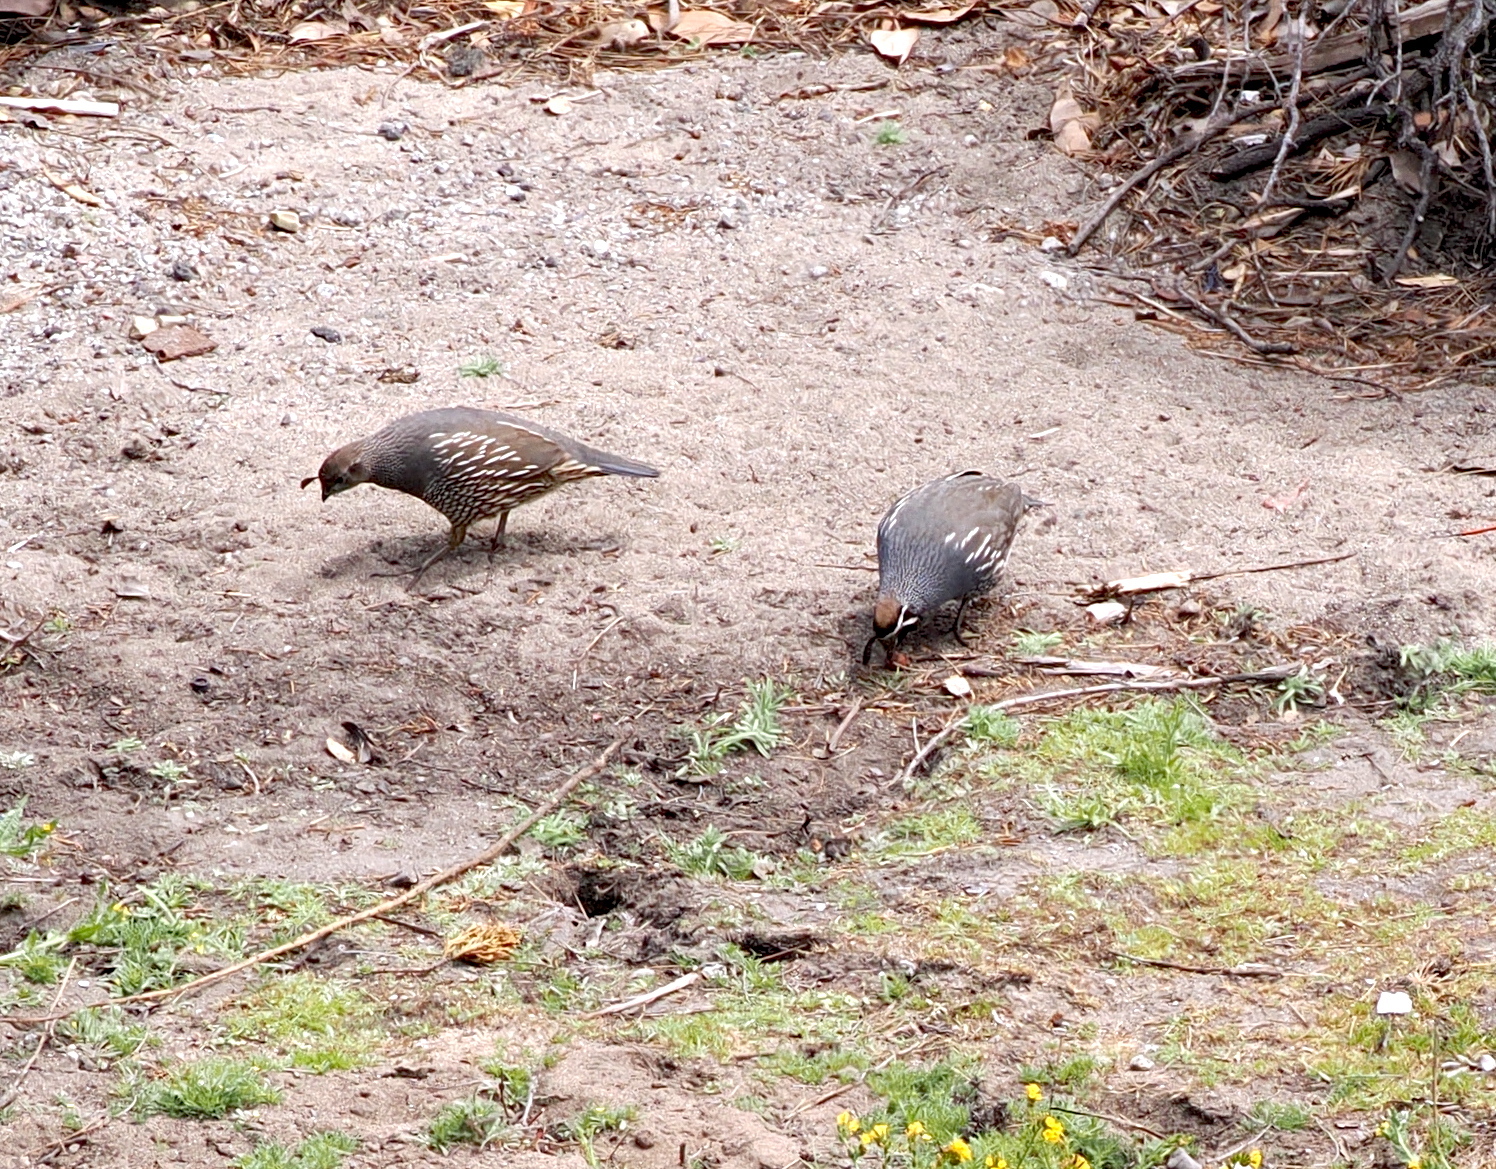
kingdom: Animalia
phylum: Chordata
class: Aves
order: Galliformes
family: Odontophoridae
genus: Callipepla
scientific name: Callipepla californica
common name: California quail
